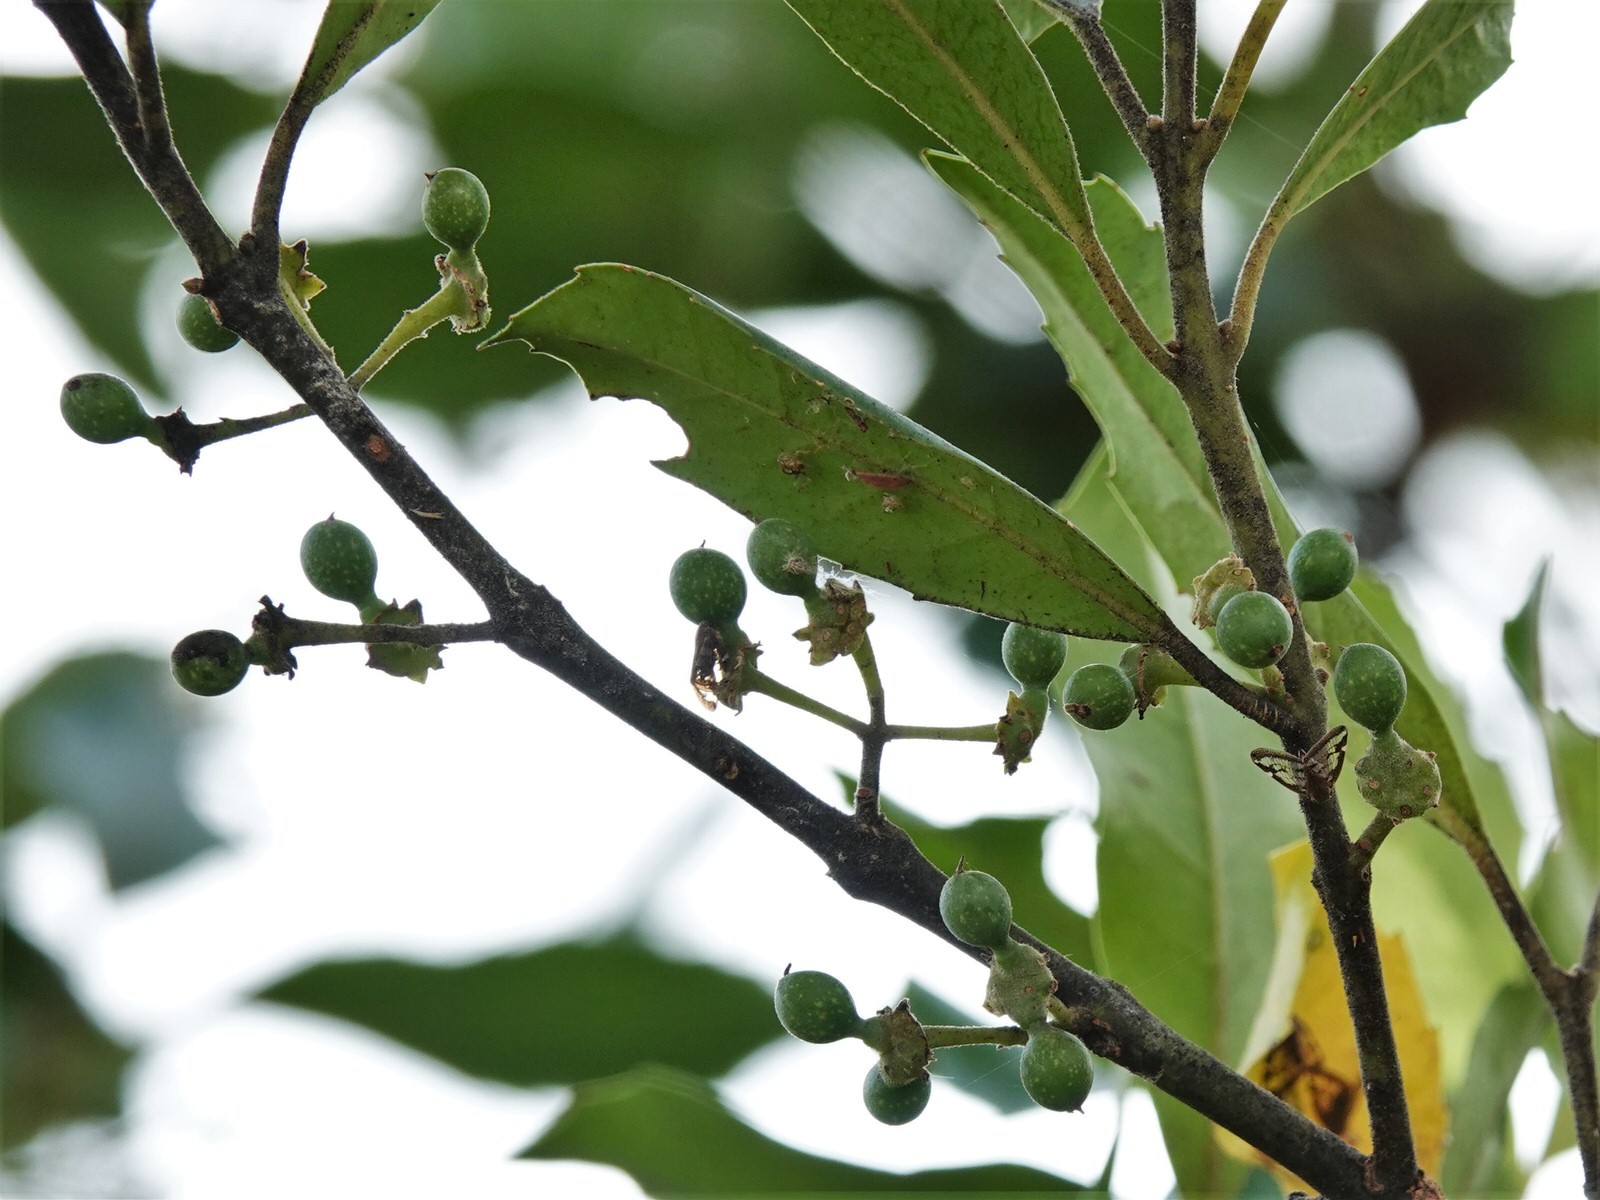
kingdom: Plantae
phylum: Tracheophyta
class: Magnoliopsida
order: Laurales
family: Monimiaceae
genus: Hedycarya
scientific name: Hedycarya arborea
